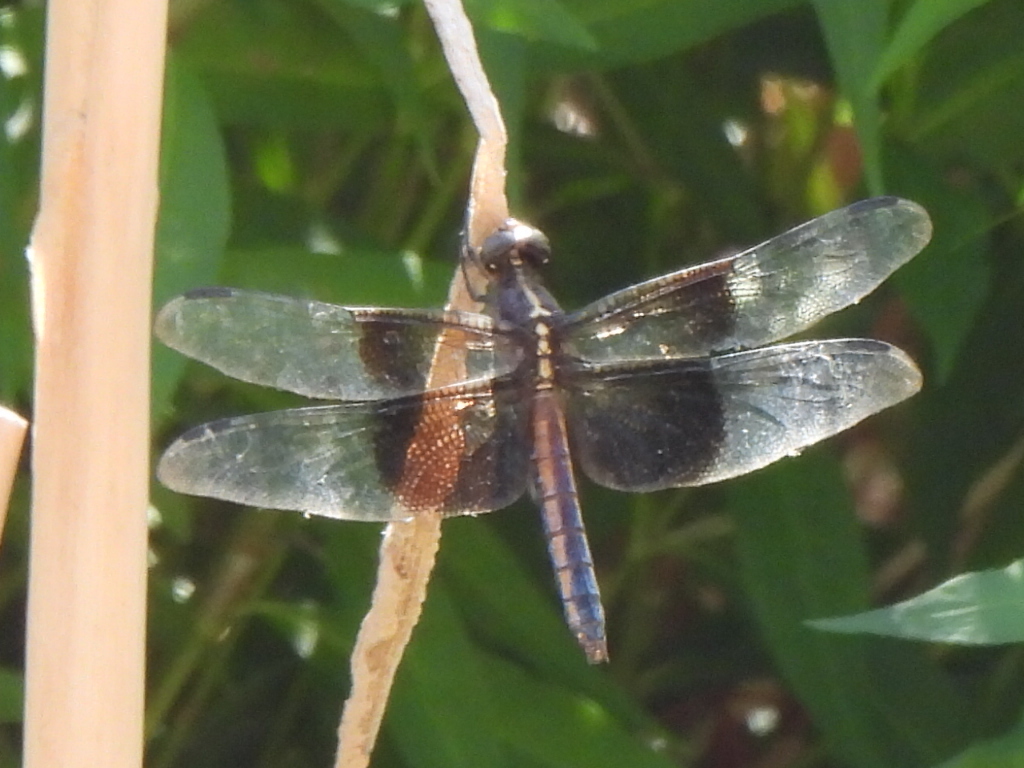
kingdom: Animalia
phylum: Arthropoda
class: Insecta
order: Odonata
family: Libellulidae
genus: Libellula
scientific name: Libellula luctuosa
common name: Widow skimmer
